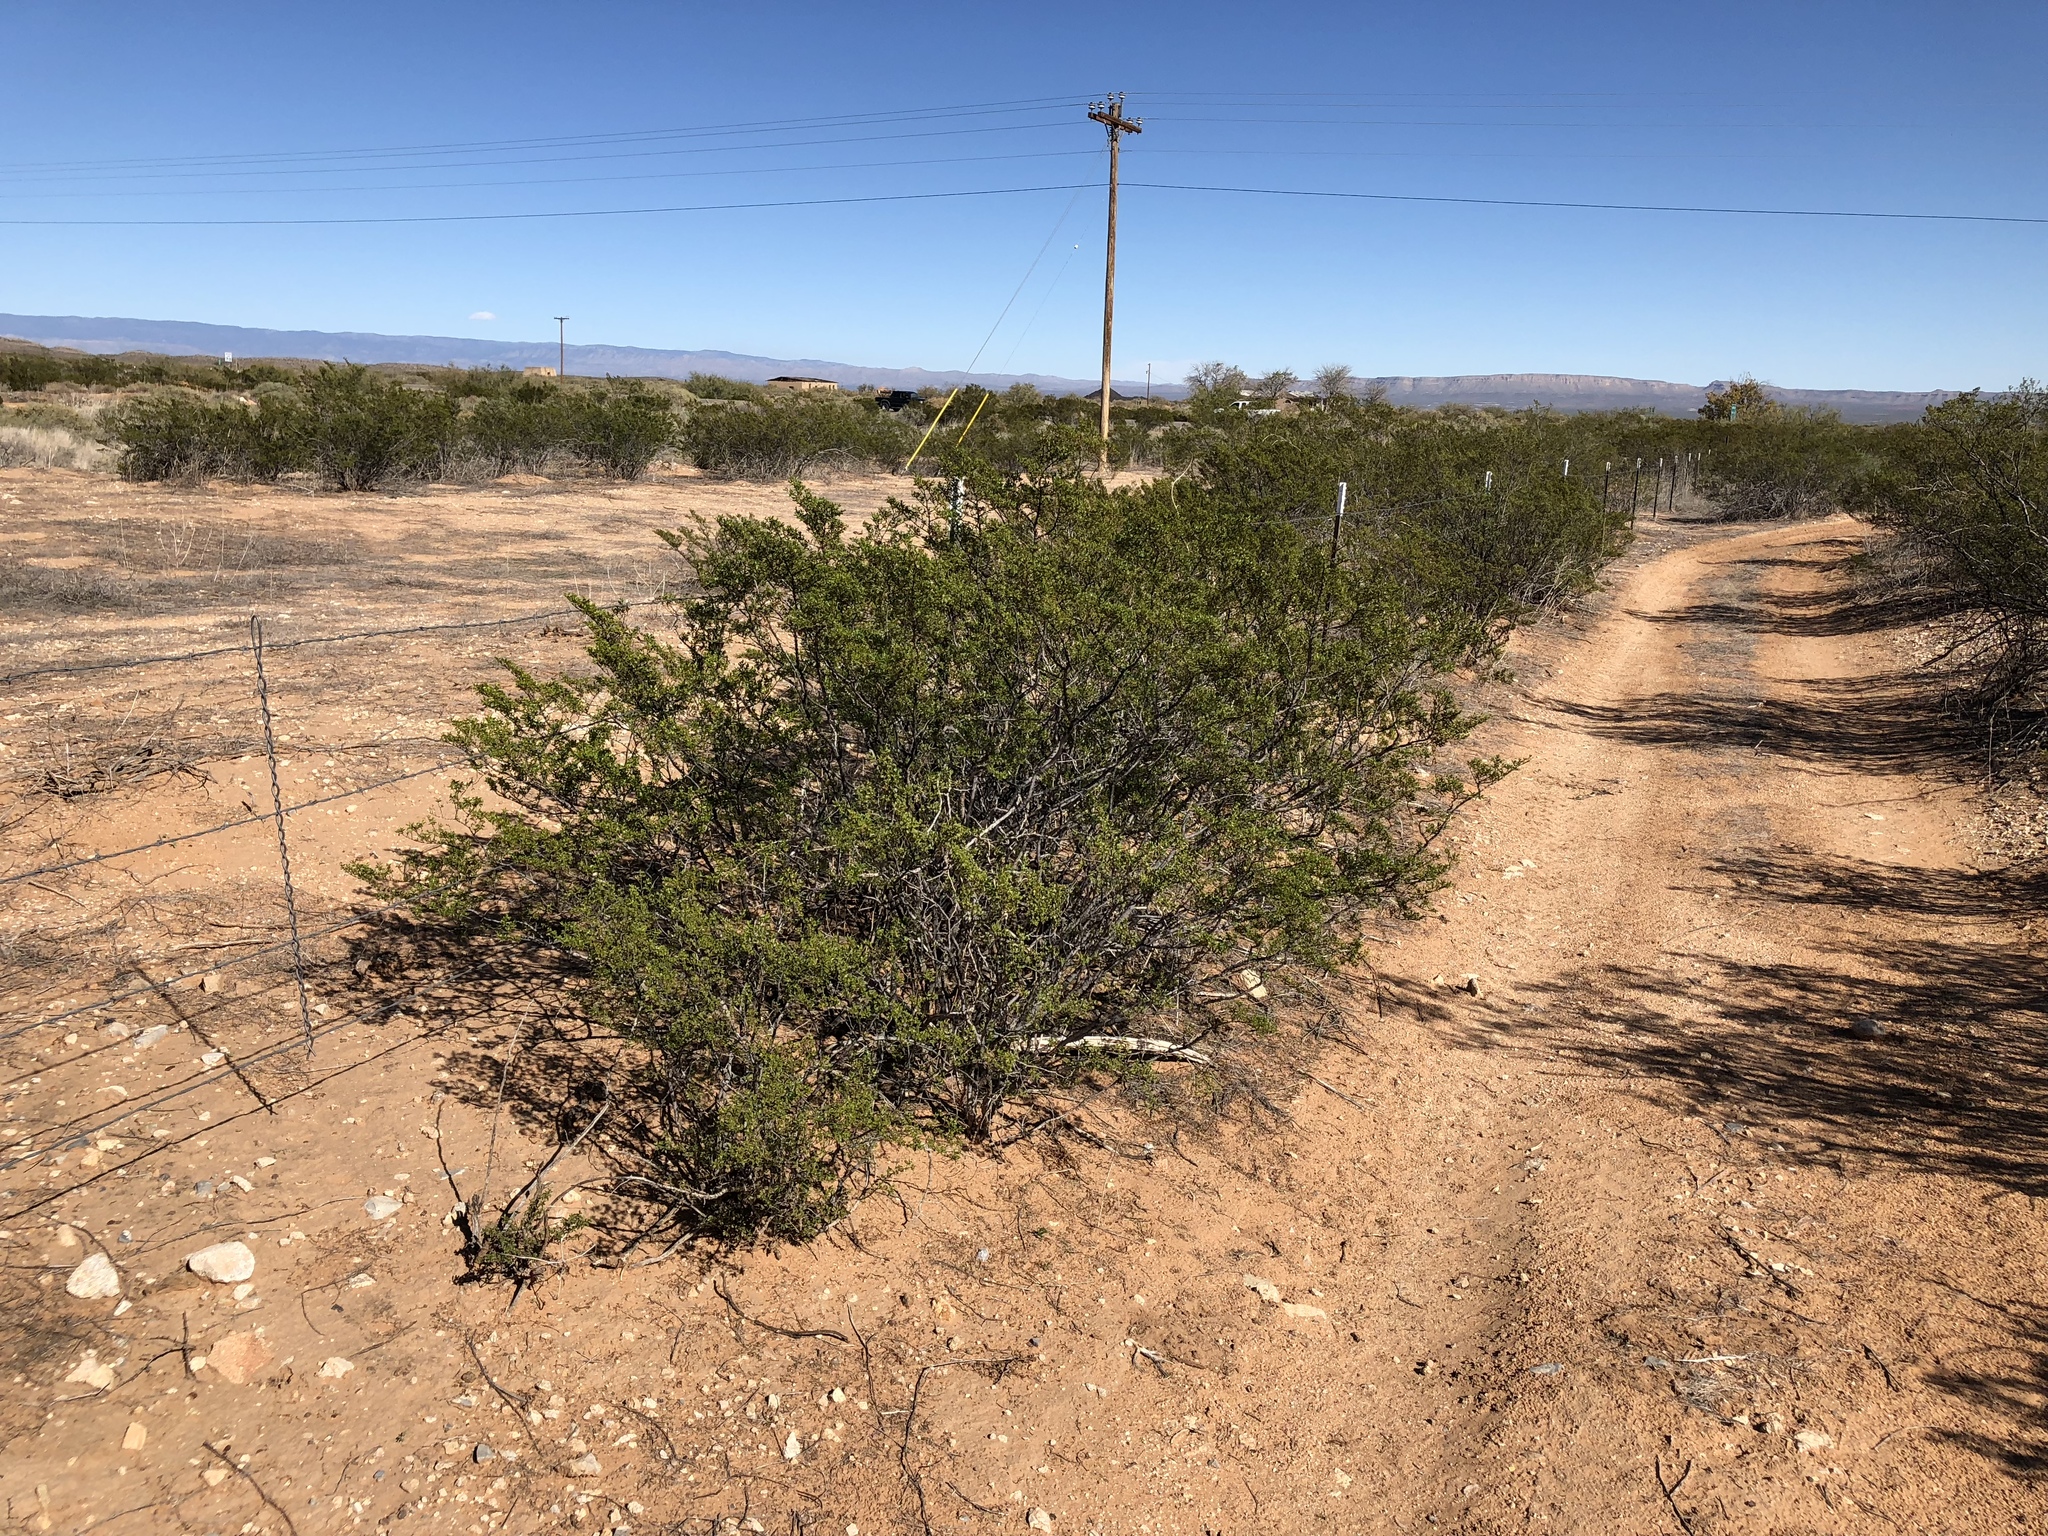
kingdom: Plantae
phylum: Tracheophyta
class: Magnoliopsida
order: Zygophyllales
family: Zygophyllaceae
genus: Larrea
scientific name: Larrea tridentata
